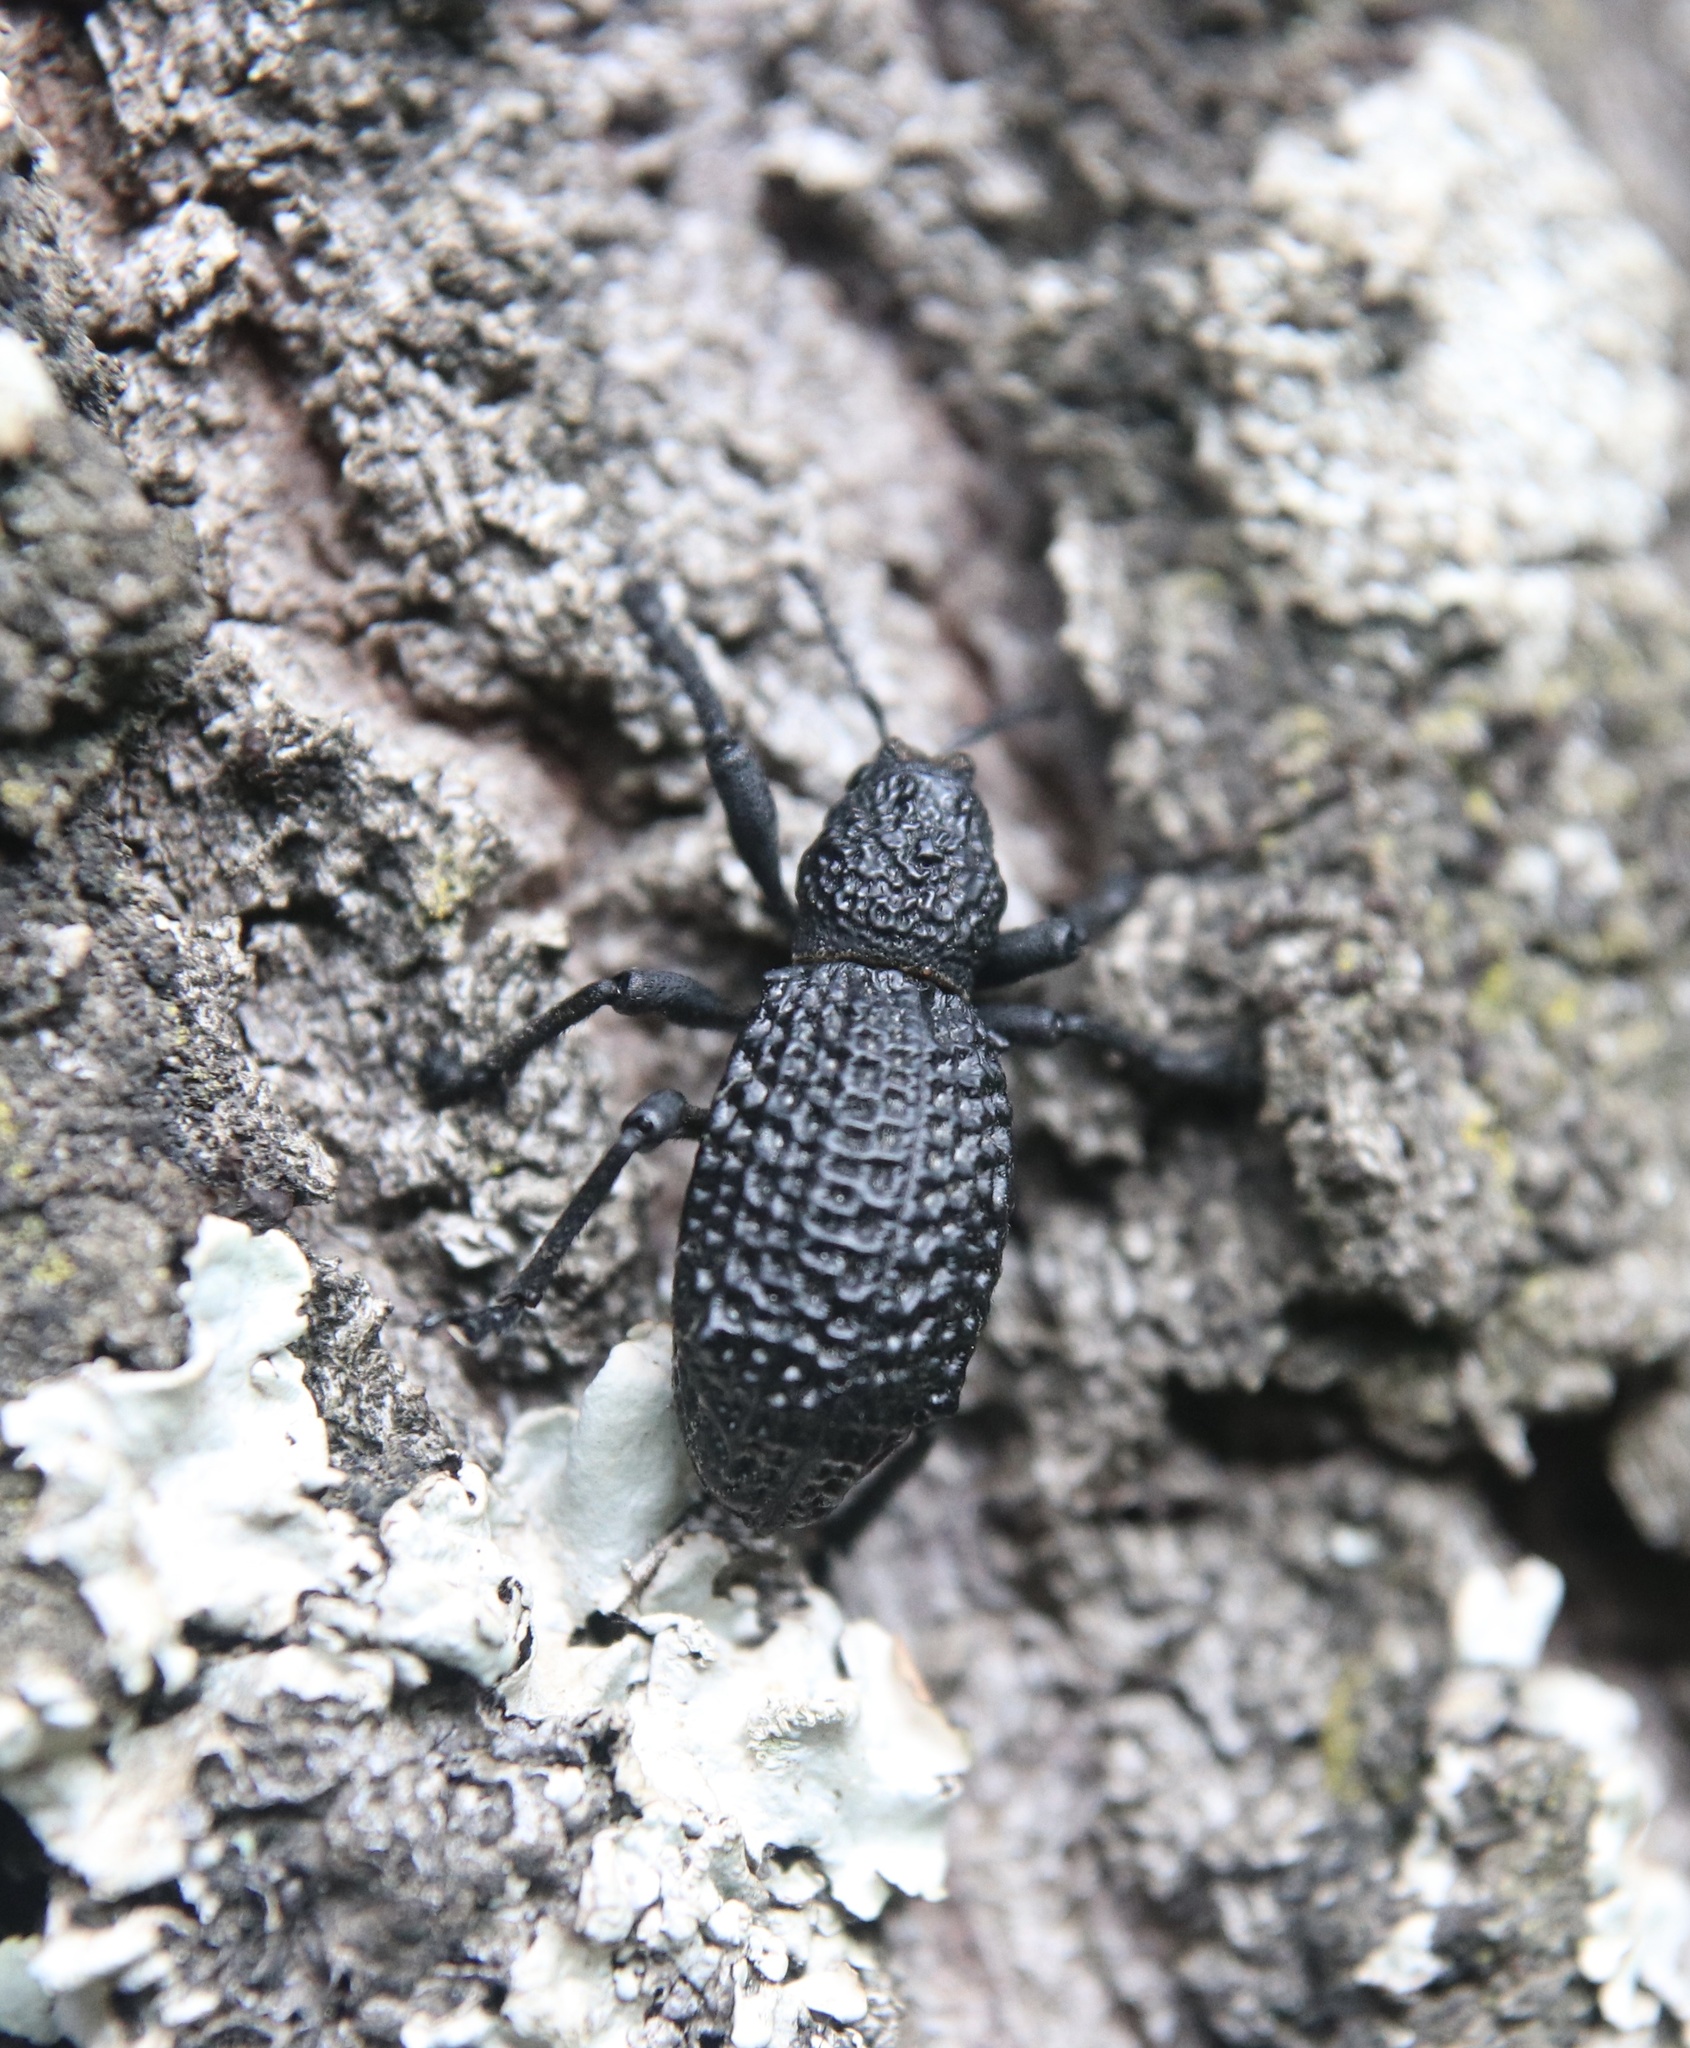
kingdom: Animalia
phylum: Arthropoda
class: Insecta
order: Coleoptera
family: Curculionidae
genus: Aegorhinus
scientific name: Aegorhinus superciliosus
